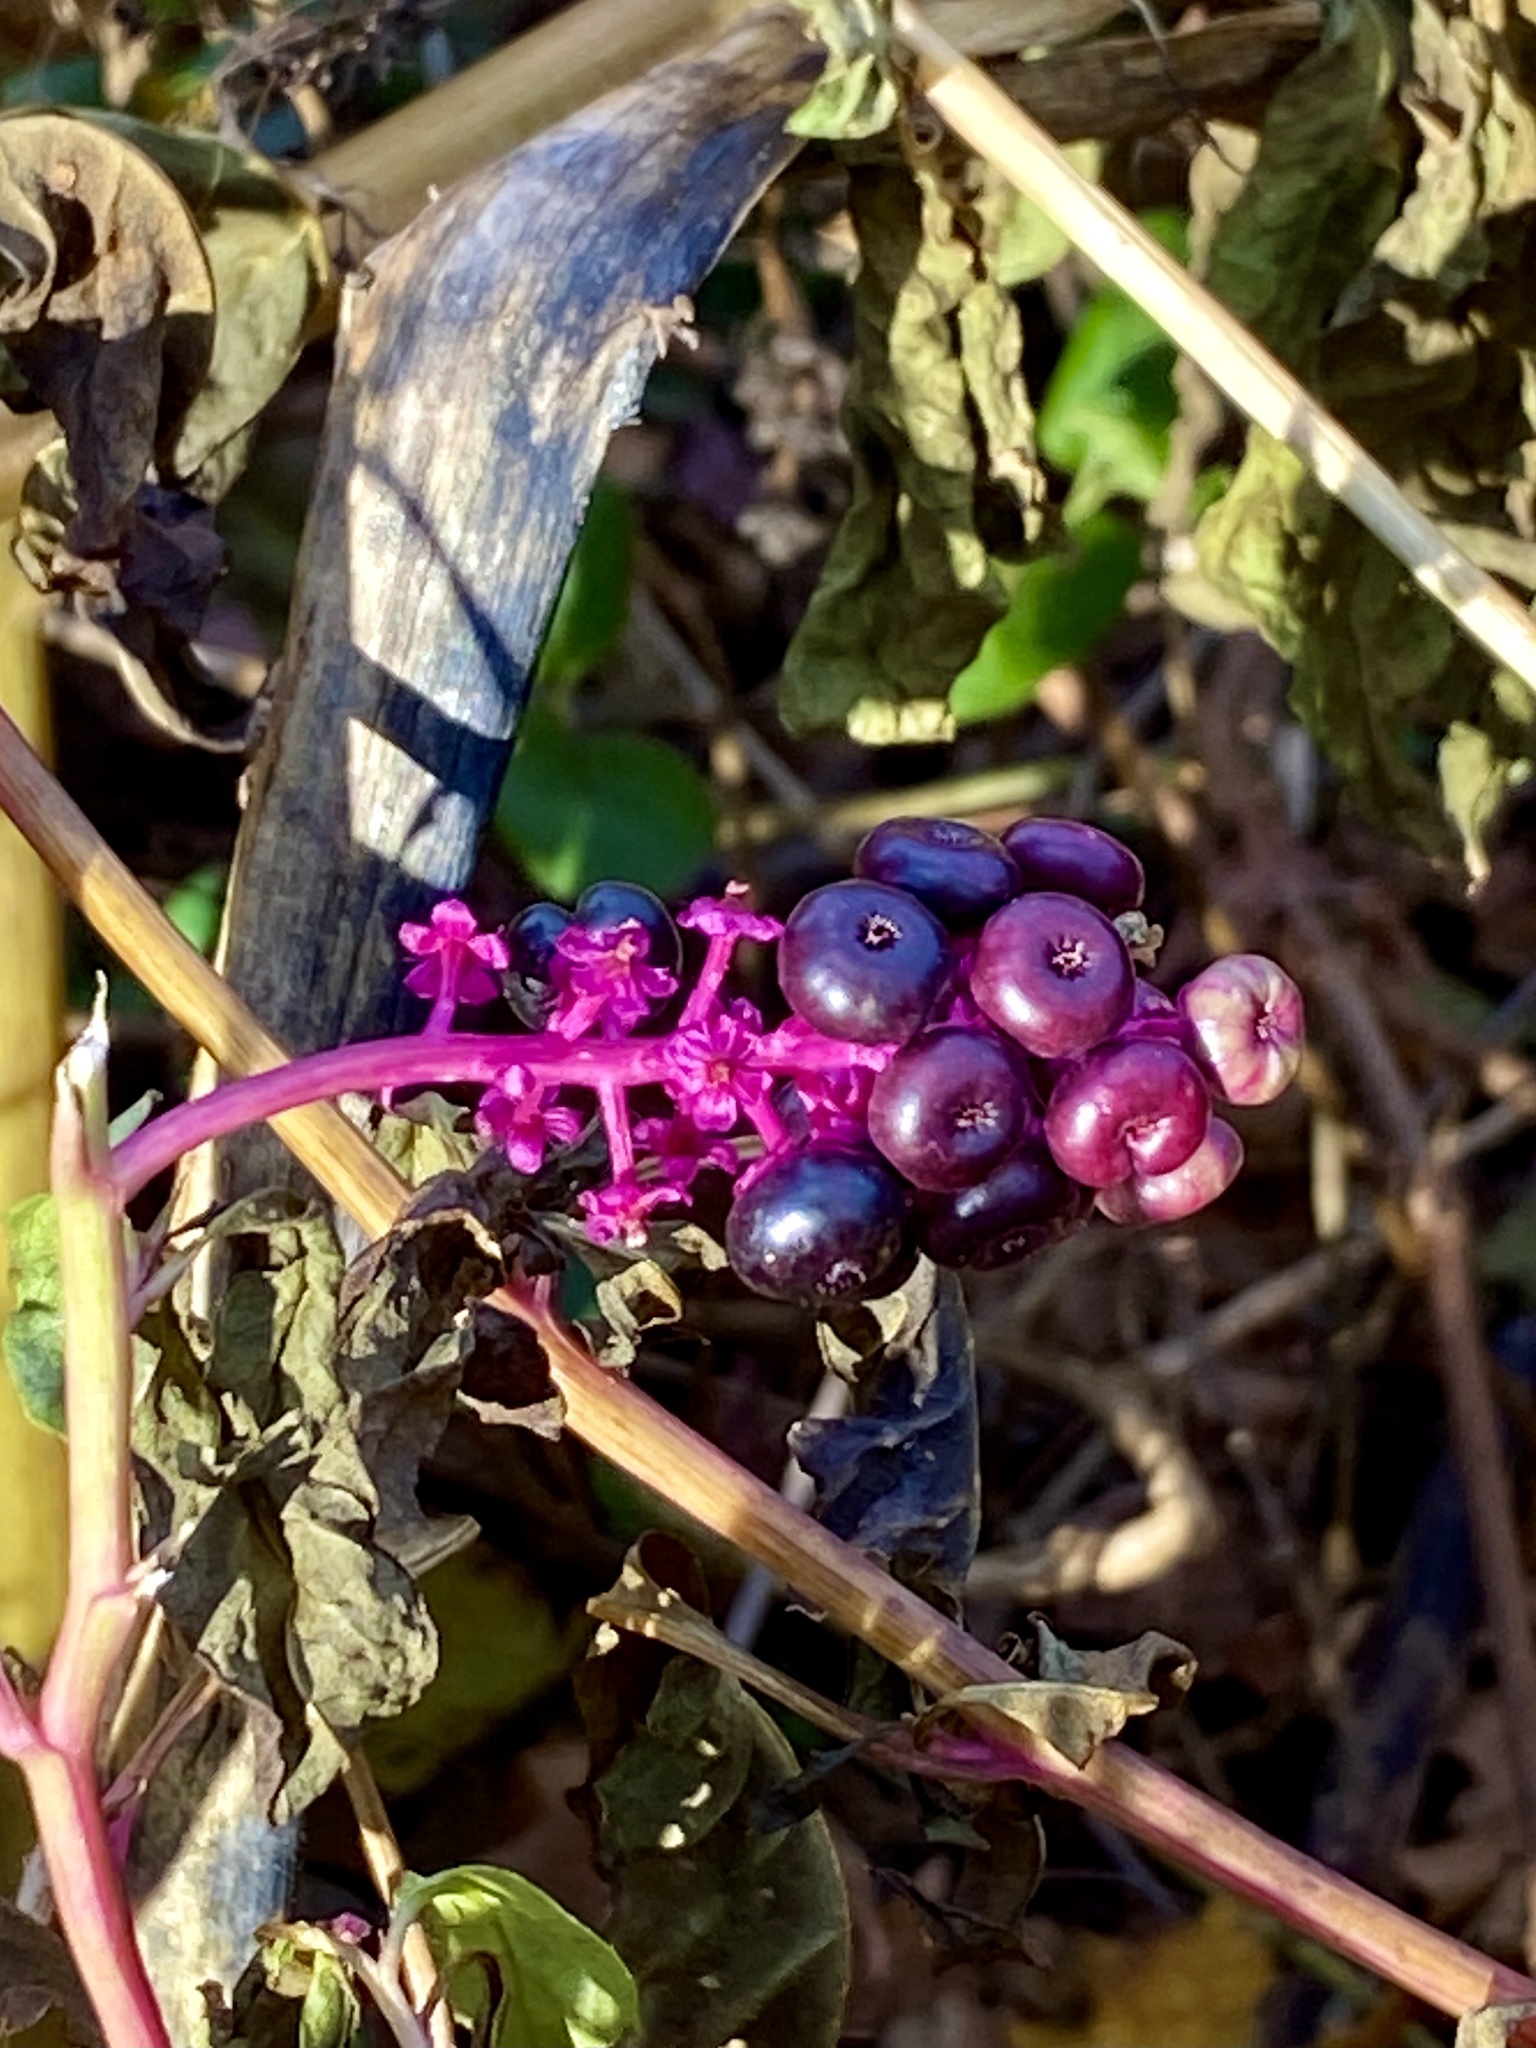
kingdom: Plantae
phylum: Tracheophyta
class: Magnoliopsida
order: Caryophyllales
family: Phytolaccaceae
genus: Phytolacca
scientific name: Phytolacca americana
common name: American pokeweed
